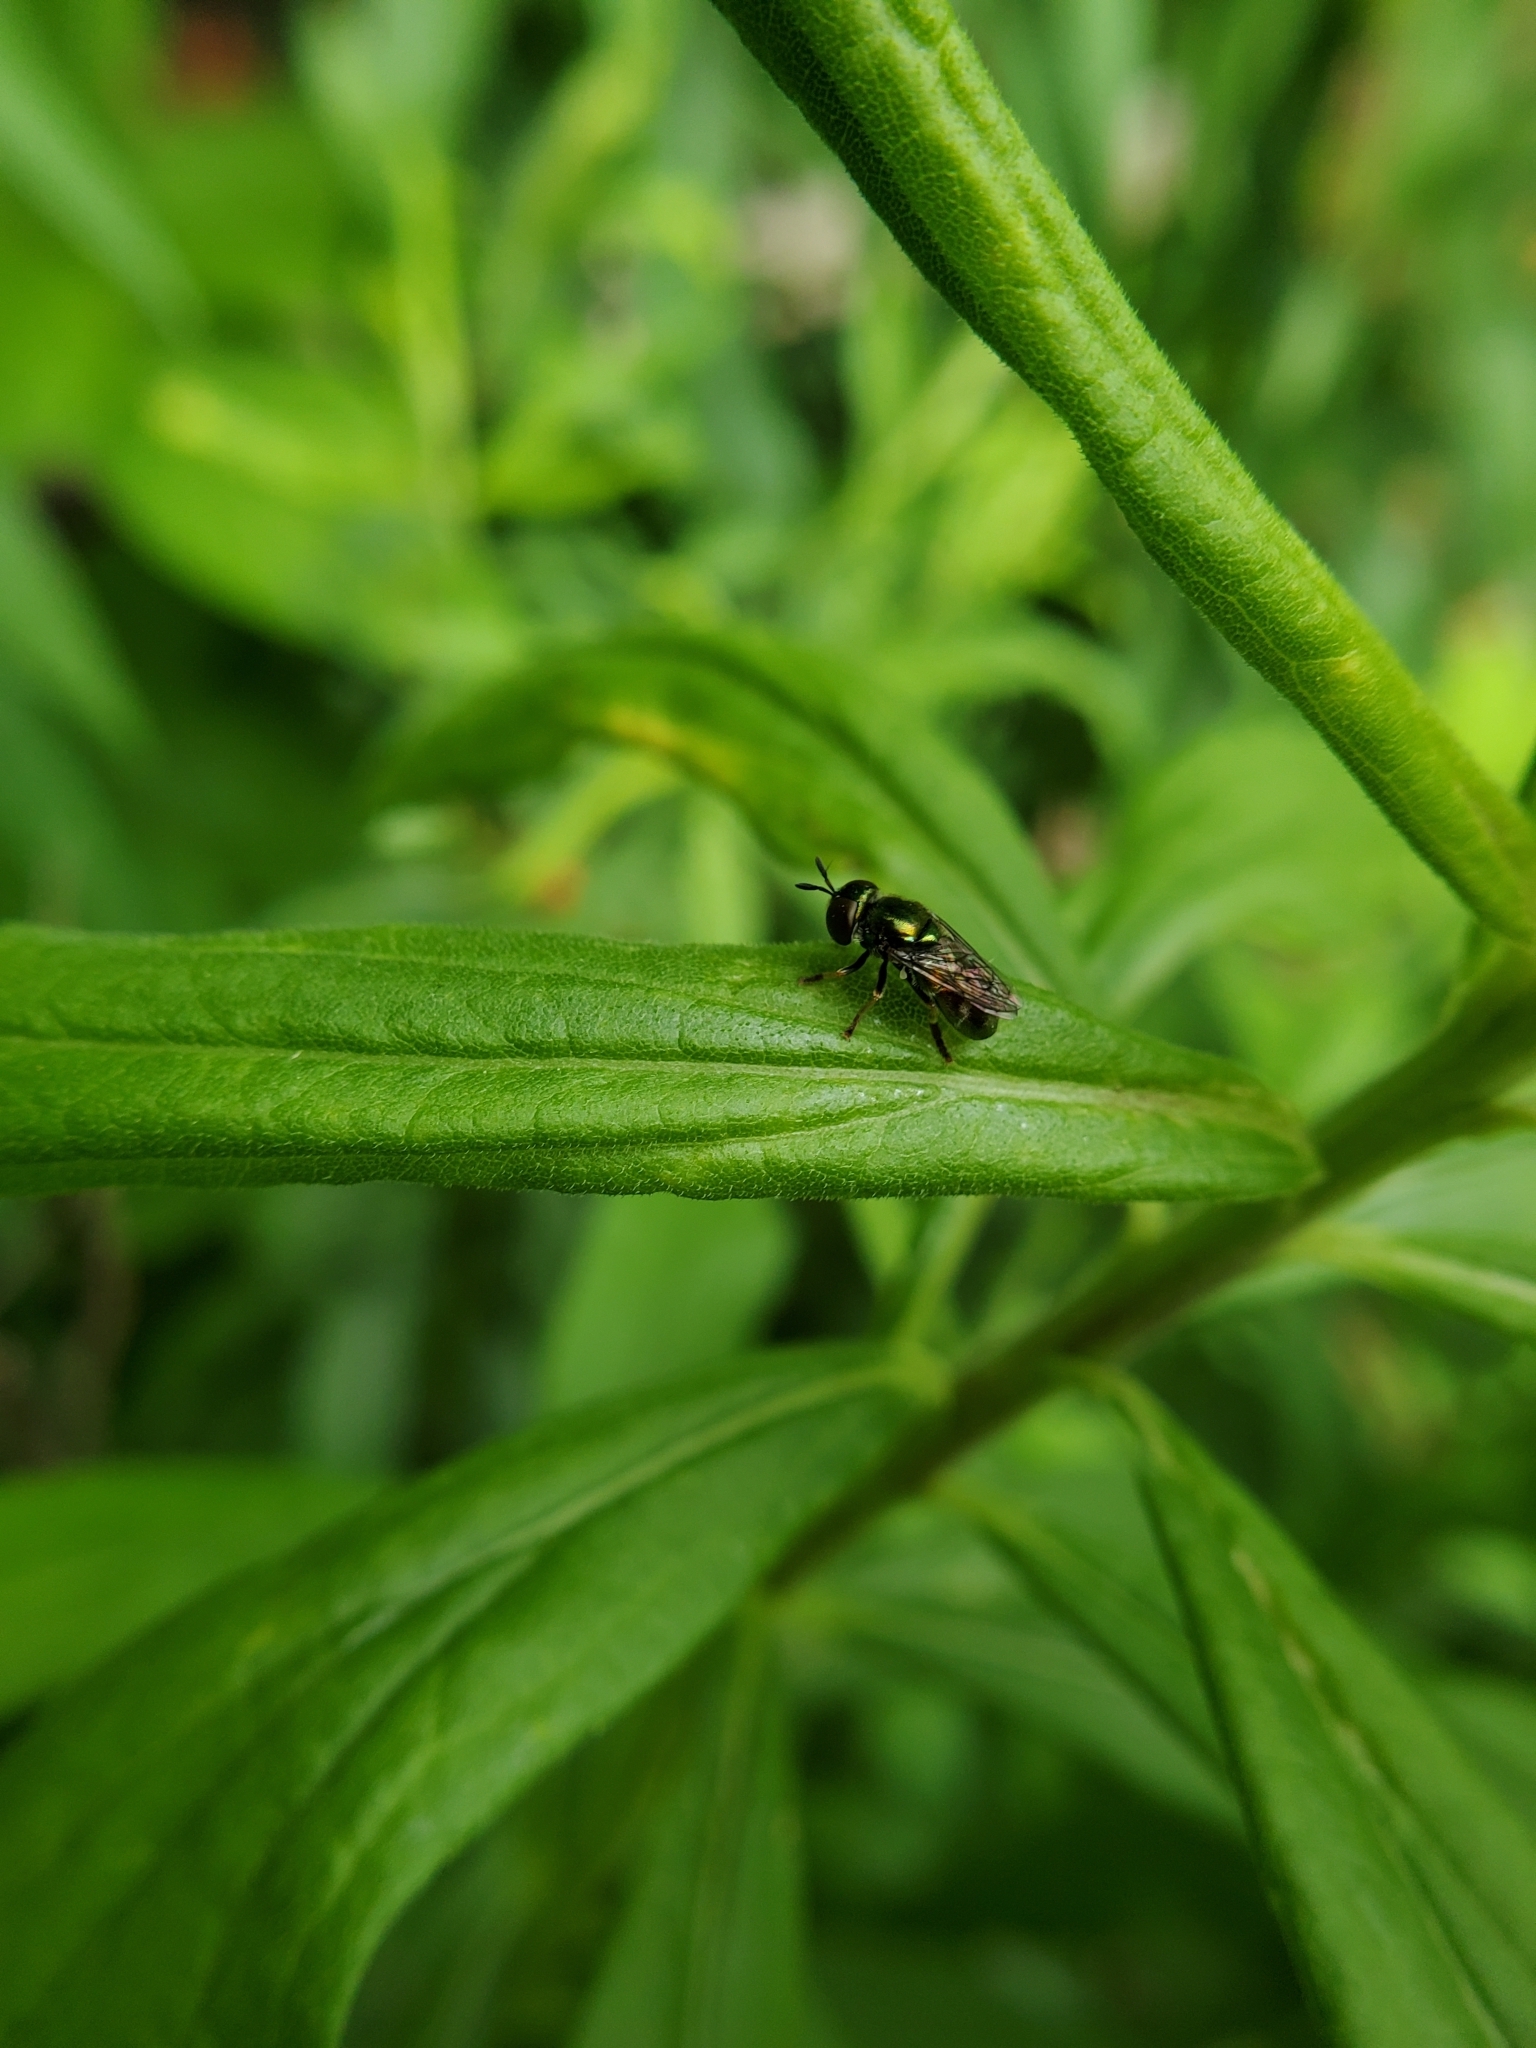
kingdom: Animalia
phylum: Arthropoda
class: Insecta
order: Diptera
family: Syrphidae
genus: Laetodon
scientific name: Laetodon laetus
